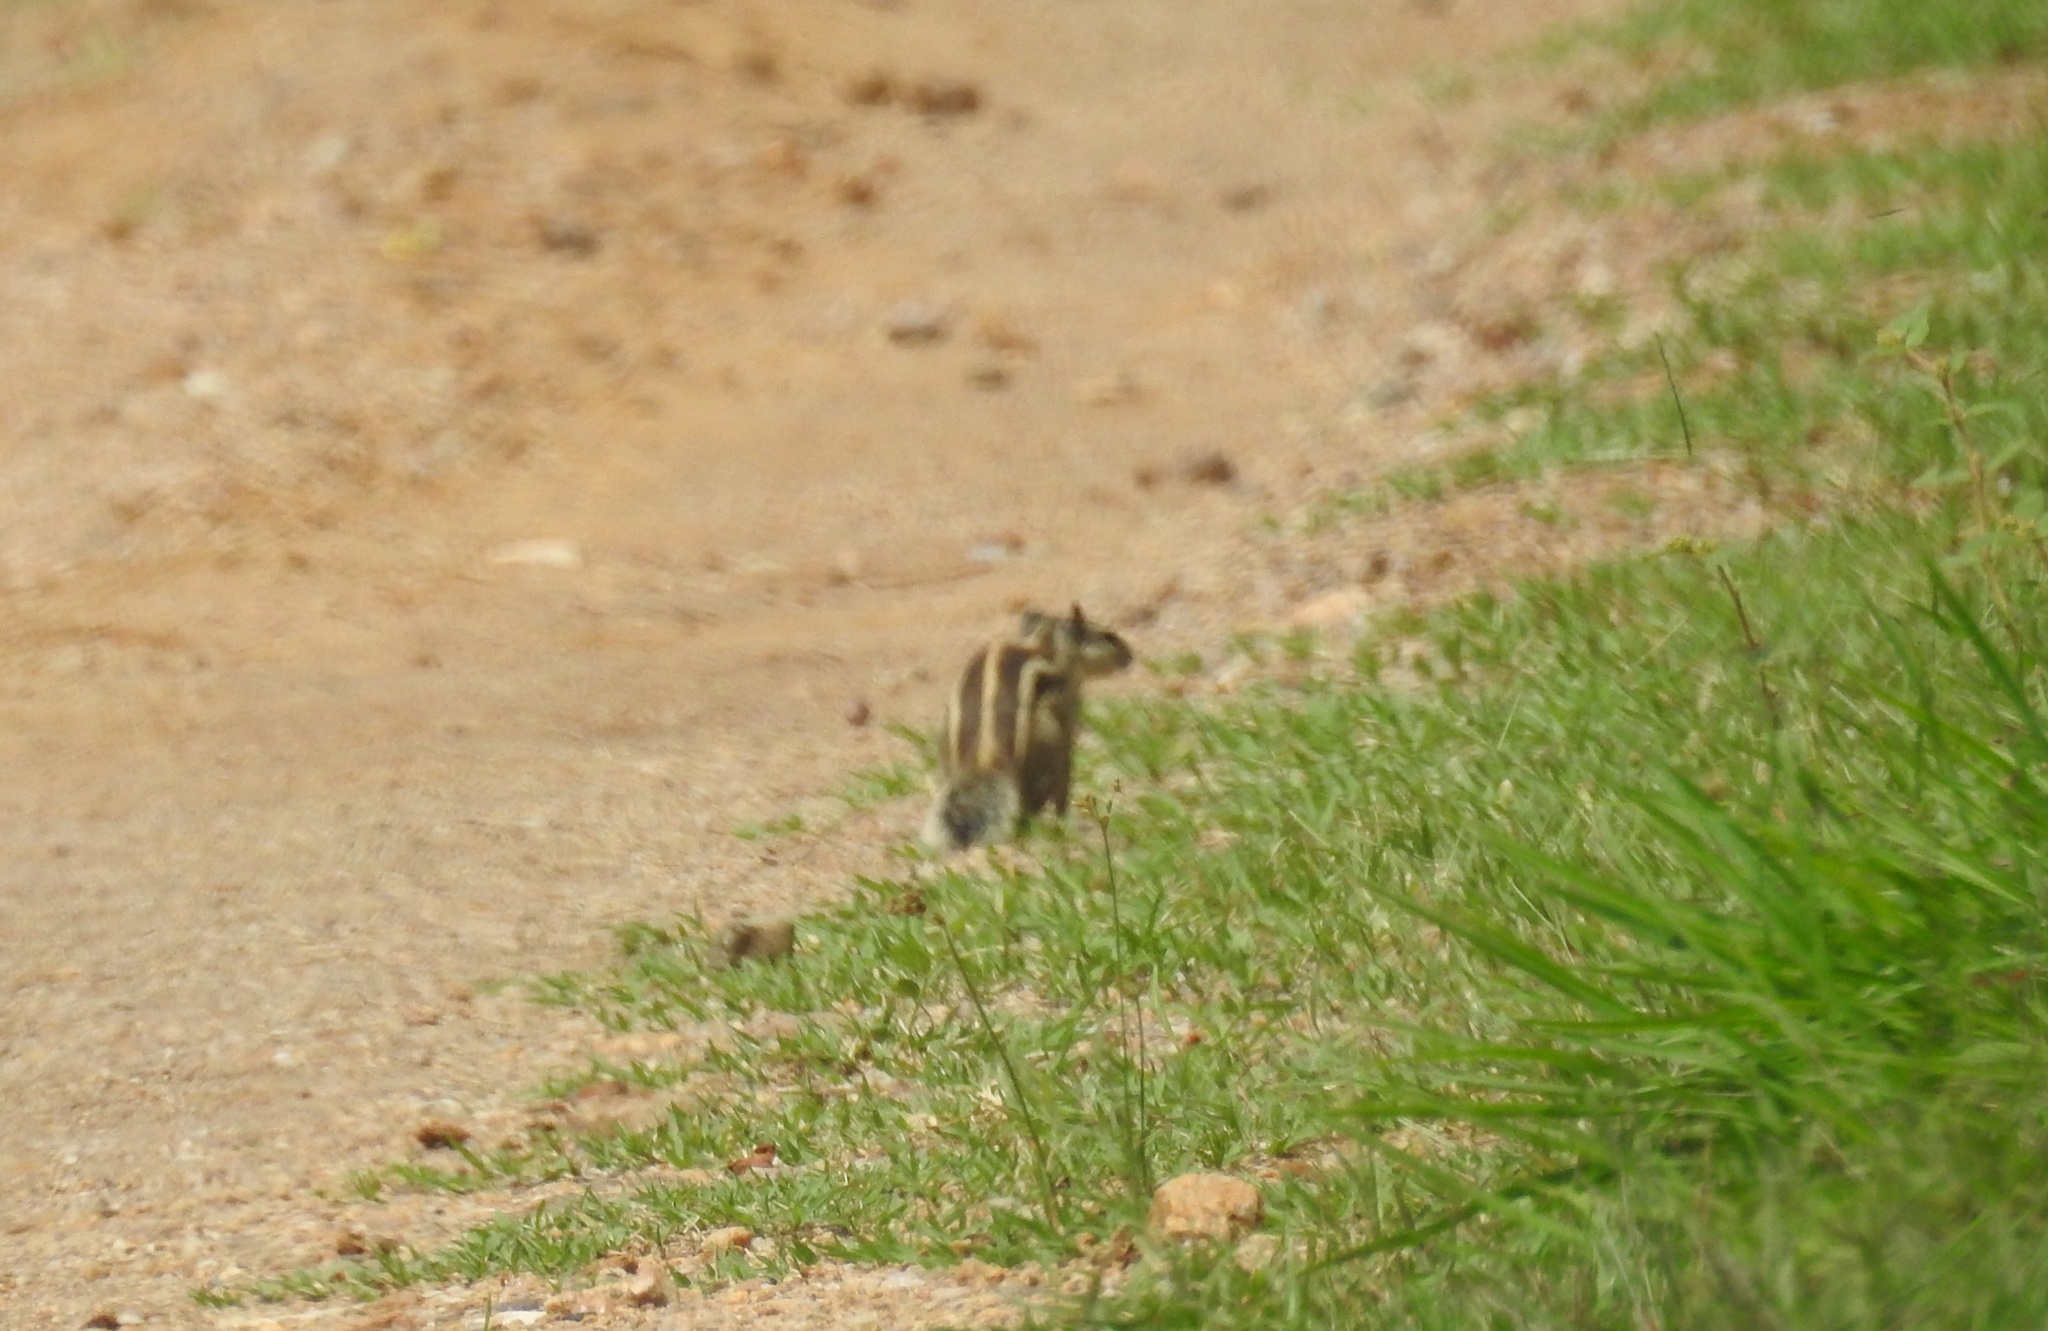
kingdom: Animalia
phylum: Chordata
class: Mammalia
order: Rodentia
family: Sciuridae
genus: Funambulus
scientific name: Funambulus pennantii
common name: Northern palm squirrel
